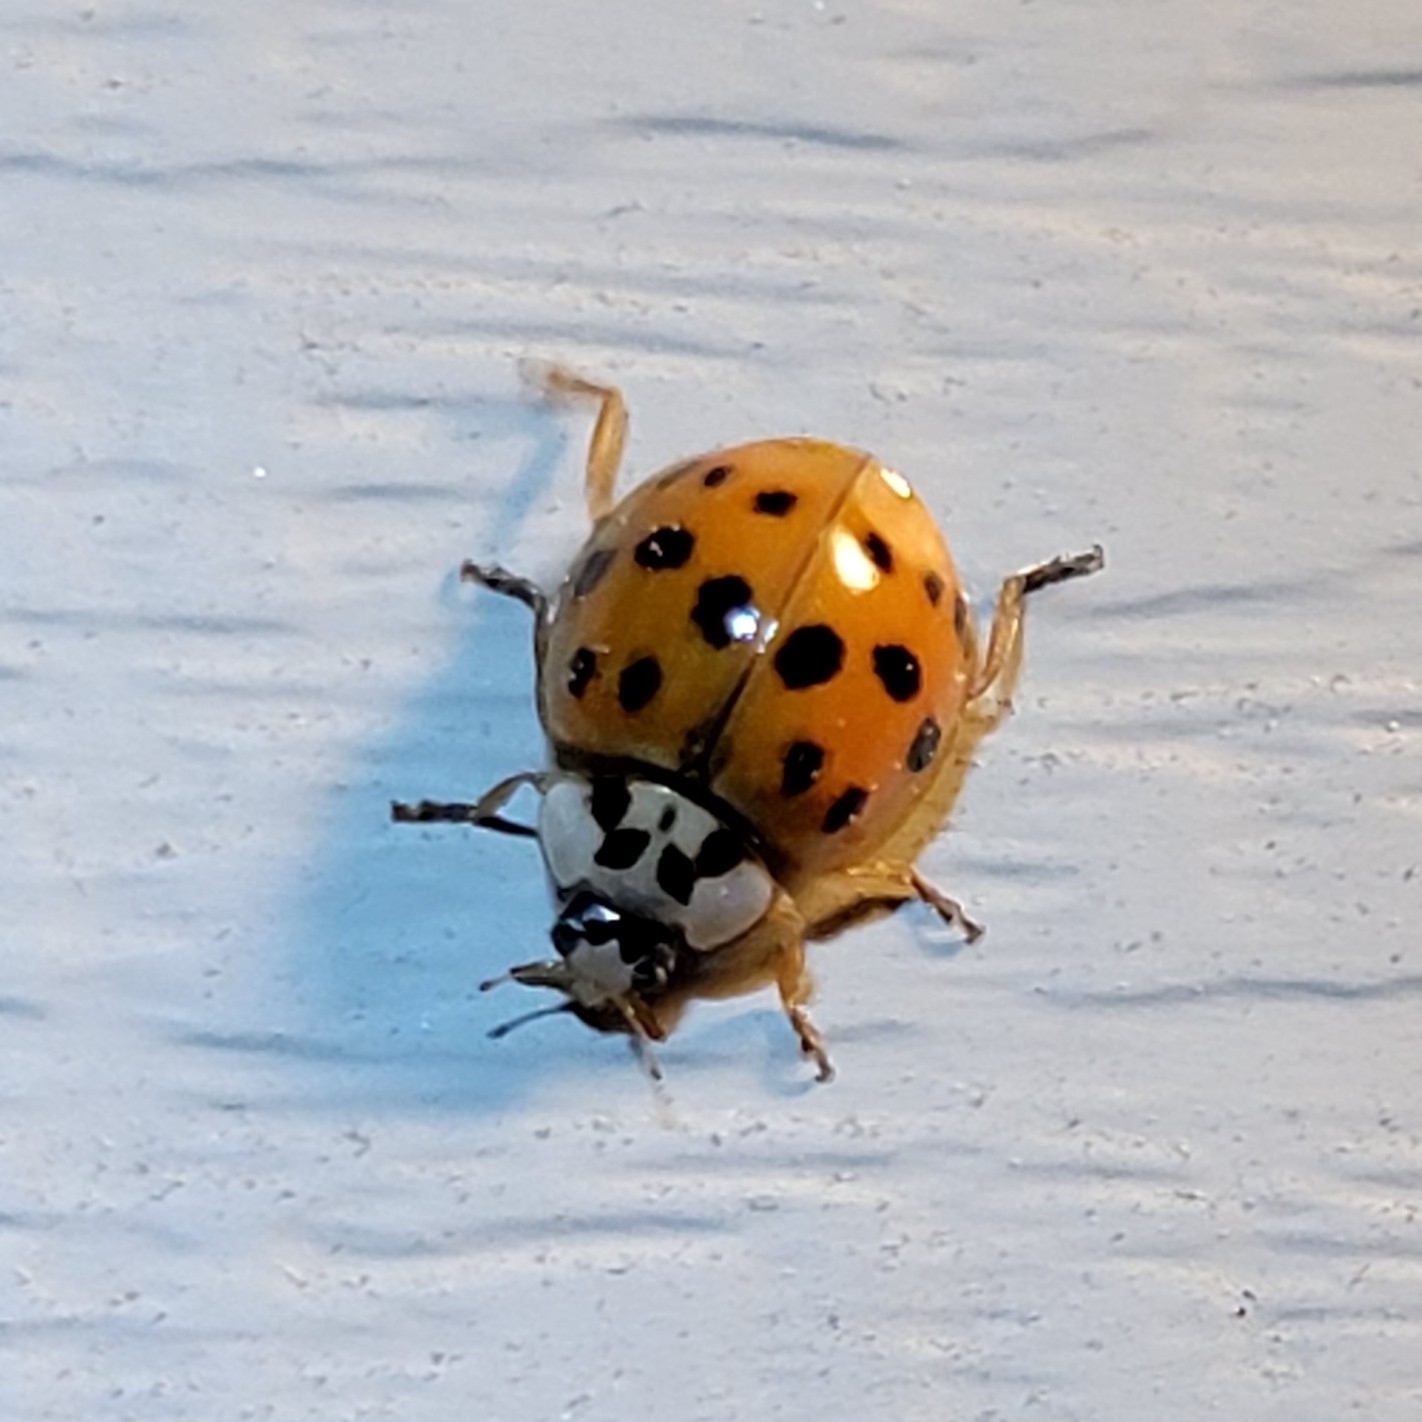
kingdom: Animalia
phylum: Arthropoda
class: Insecta
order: Coleoptera
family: Coccinellidae
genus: Harmonia
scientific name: Harmonia axyridis
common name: Harlequin ladybird
